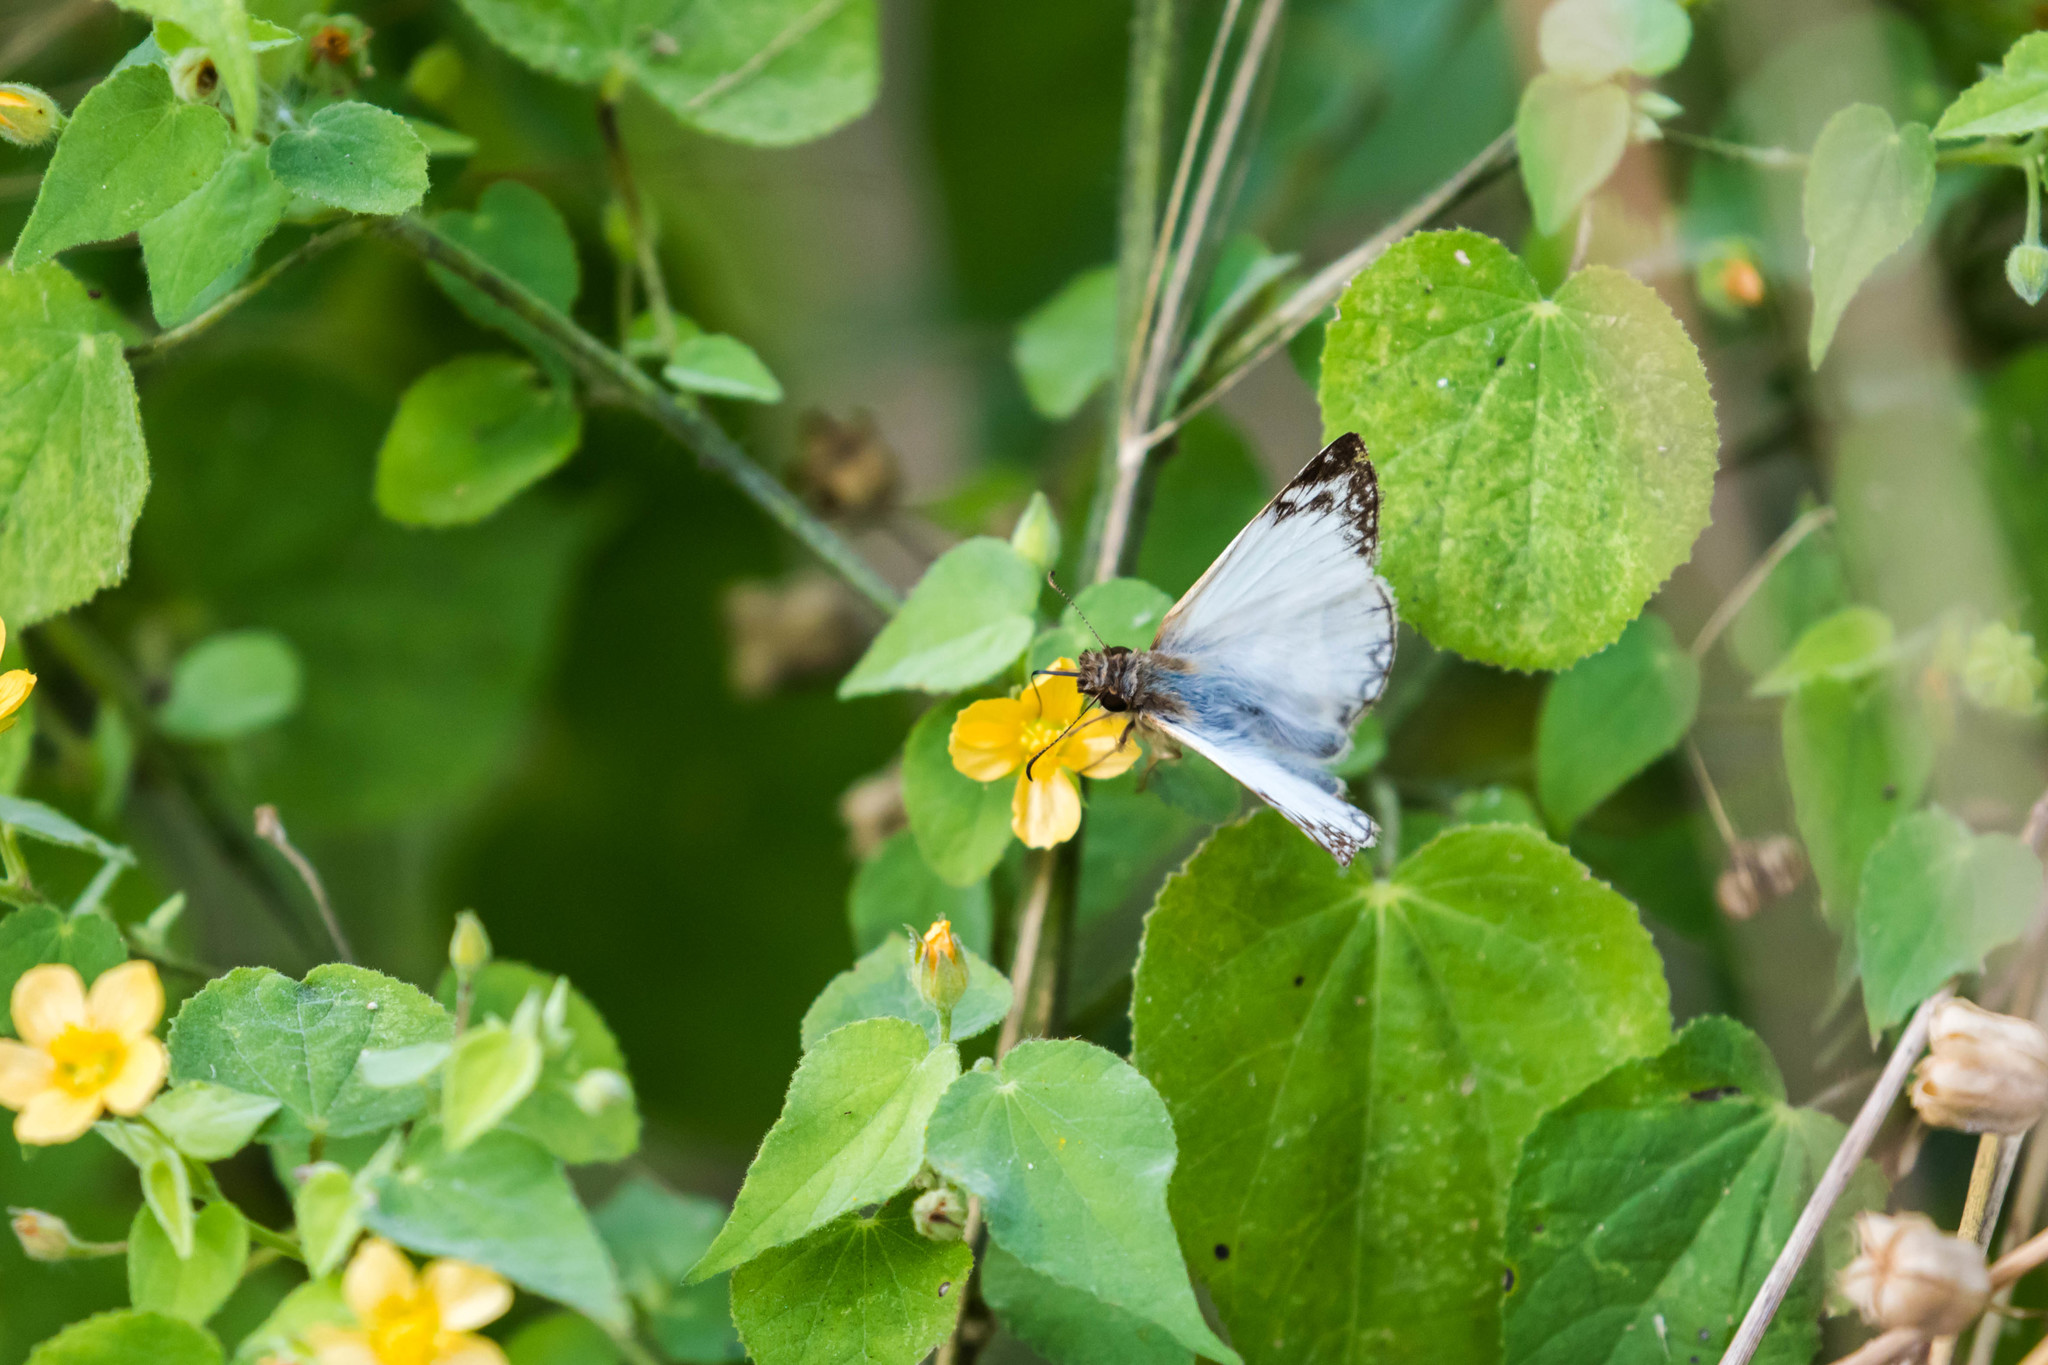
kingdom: Animalia
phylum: Arthropoda
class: Insecta
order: Lepidoptera
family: Hesperiidae
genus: Heliopetes
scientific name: Heliopetes laviana
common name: Laviana white-skipper
